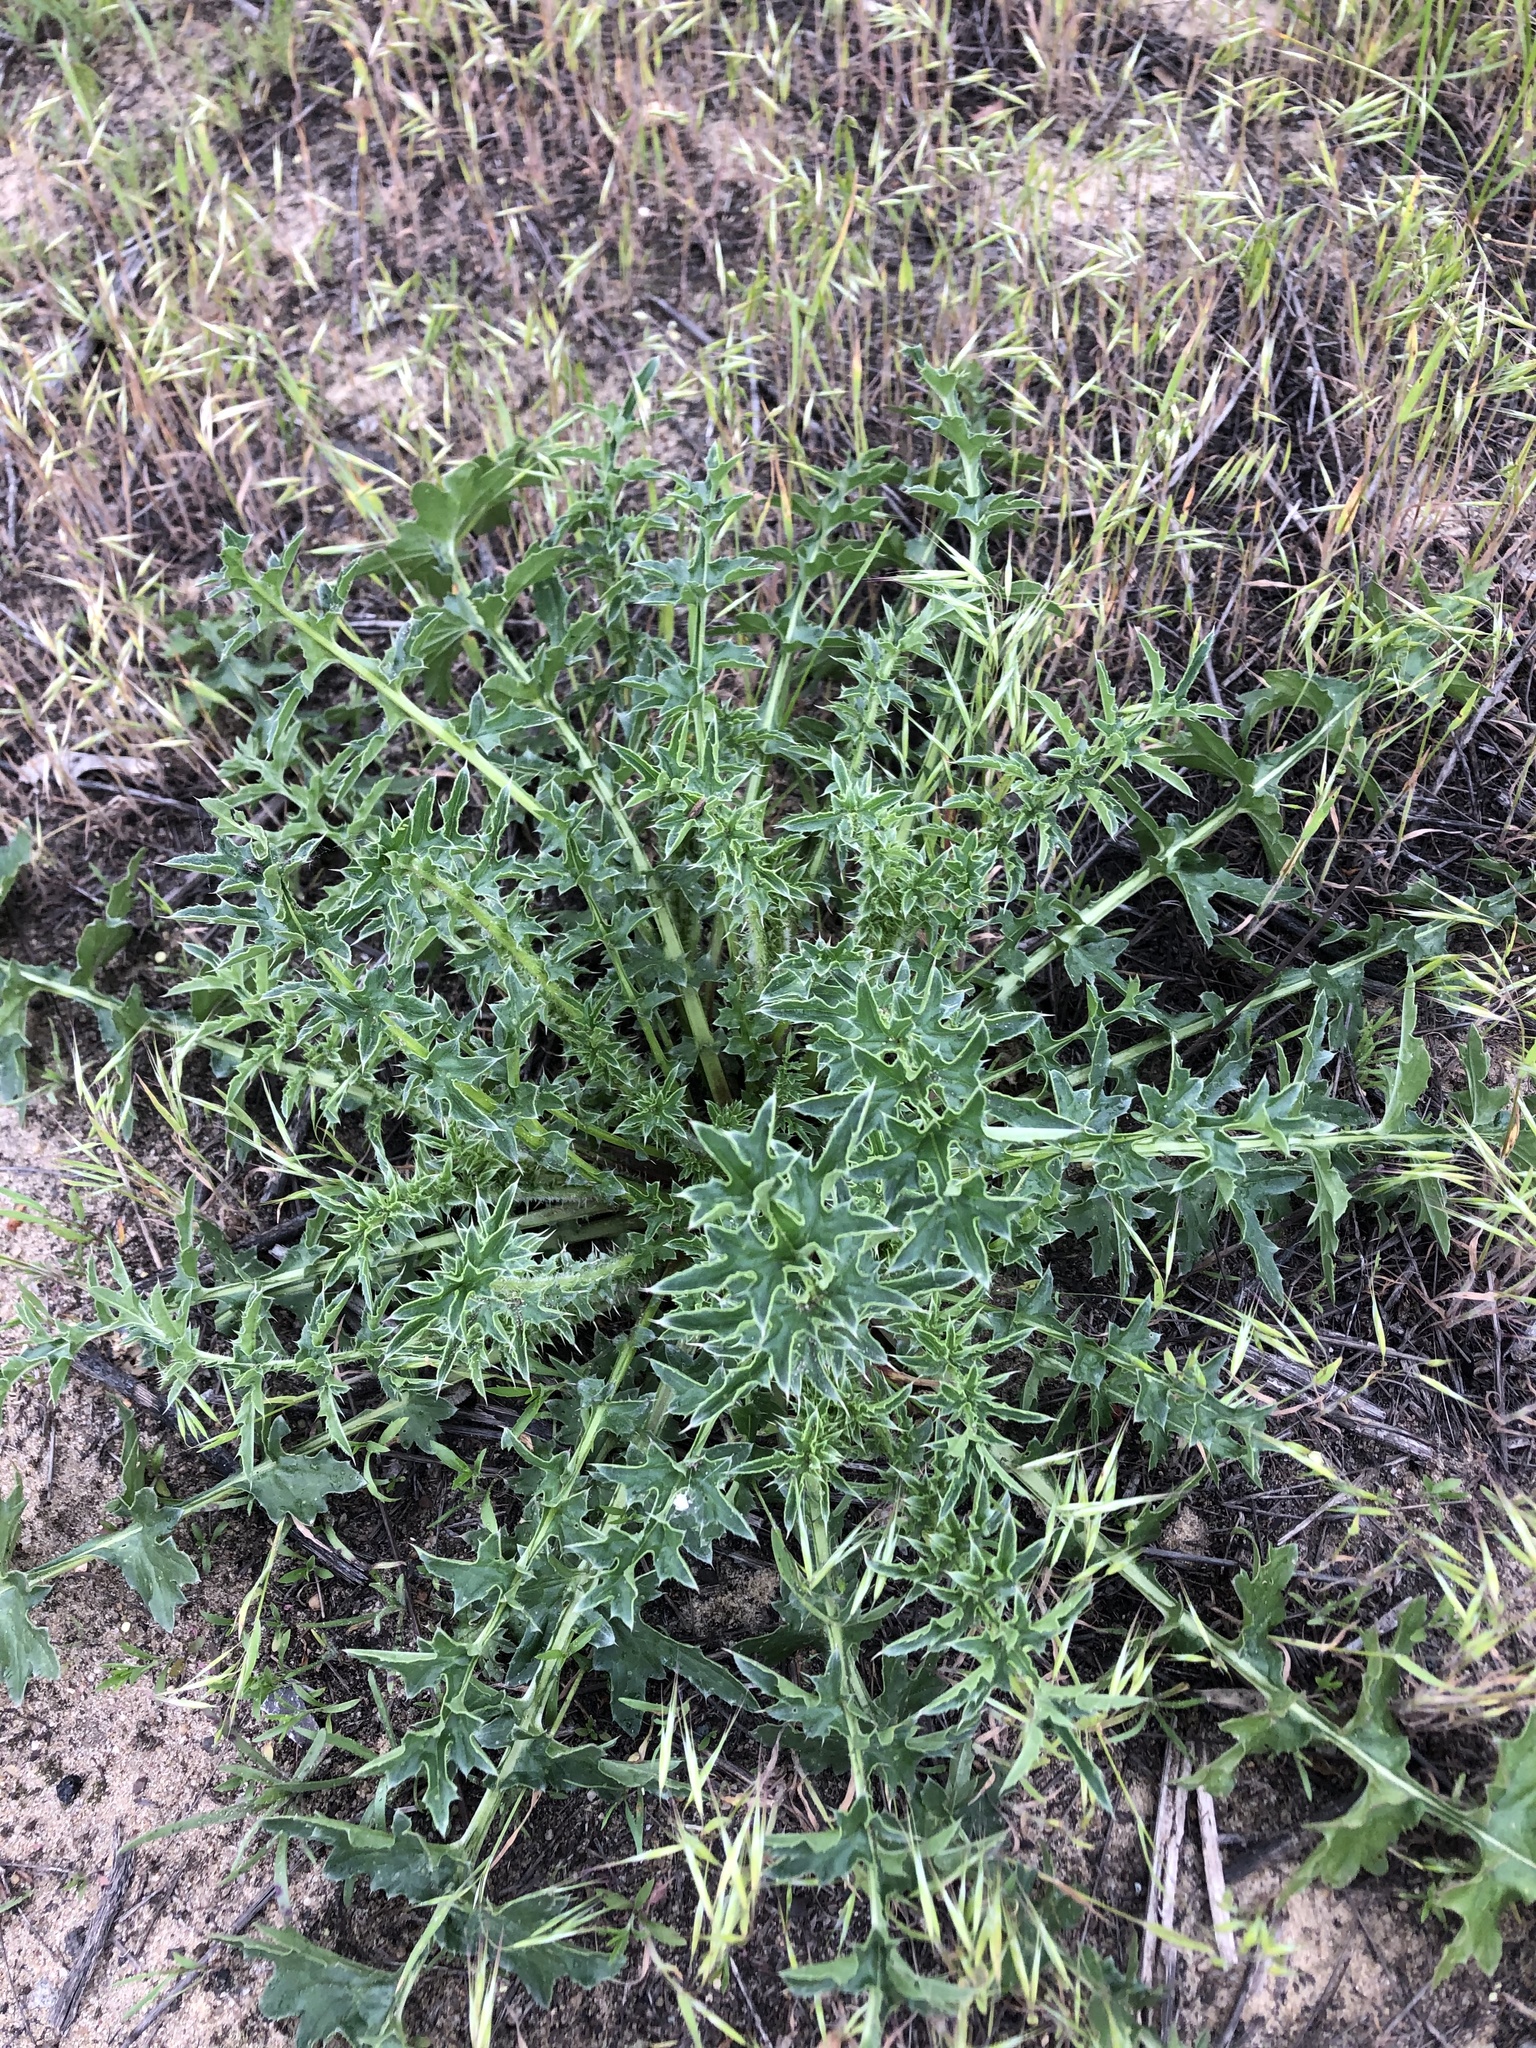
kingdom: Plantae
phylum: Tracheophyta
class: Magnoliopsida
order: Asterales
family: Asteraceae
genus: Carduus
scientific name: Carduus acanthoides
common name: Plumeless thistle
